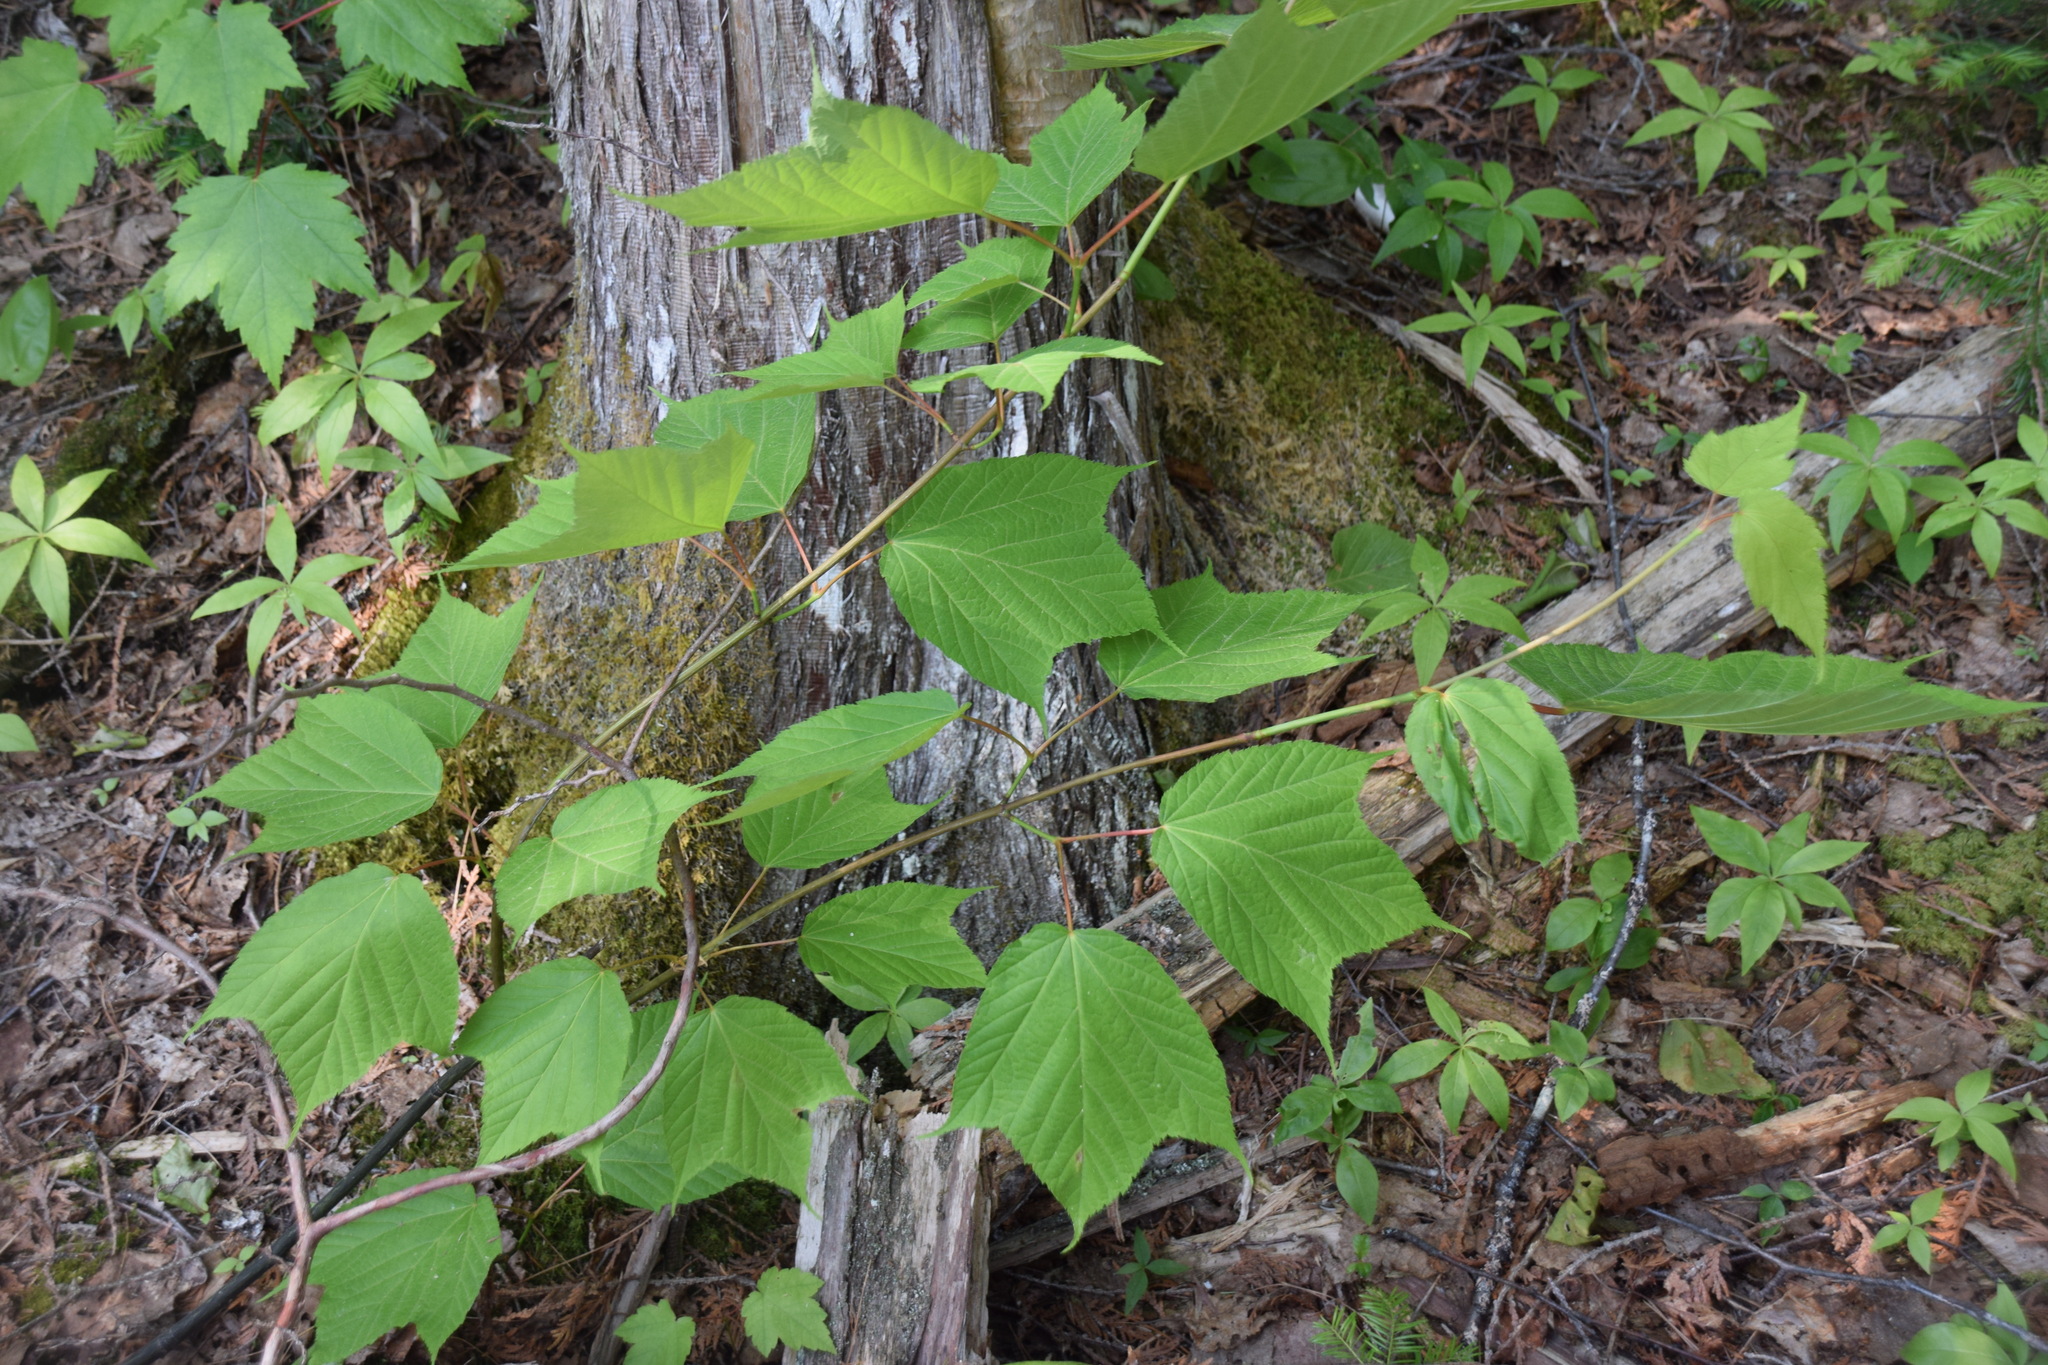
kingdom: Plantae
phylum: Tracheophyta
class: Magnoliopsida
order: Sapindales
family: Sapindaceae
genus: Acer
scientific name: Acer pensylvanicum
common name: Moosewood
